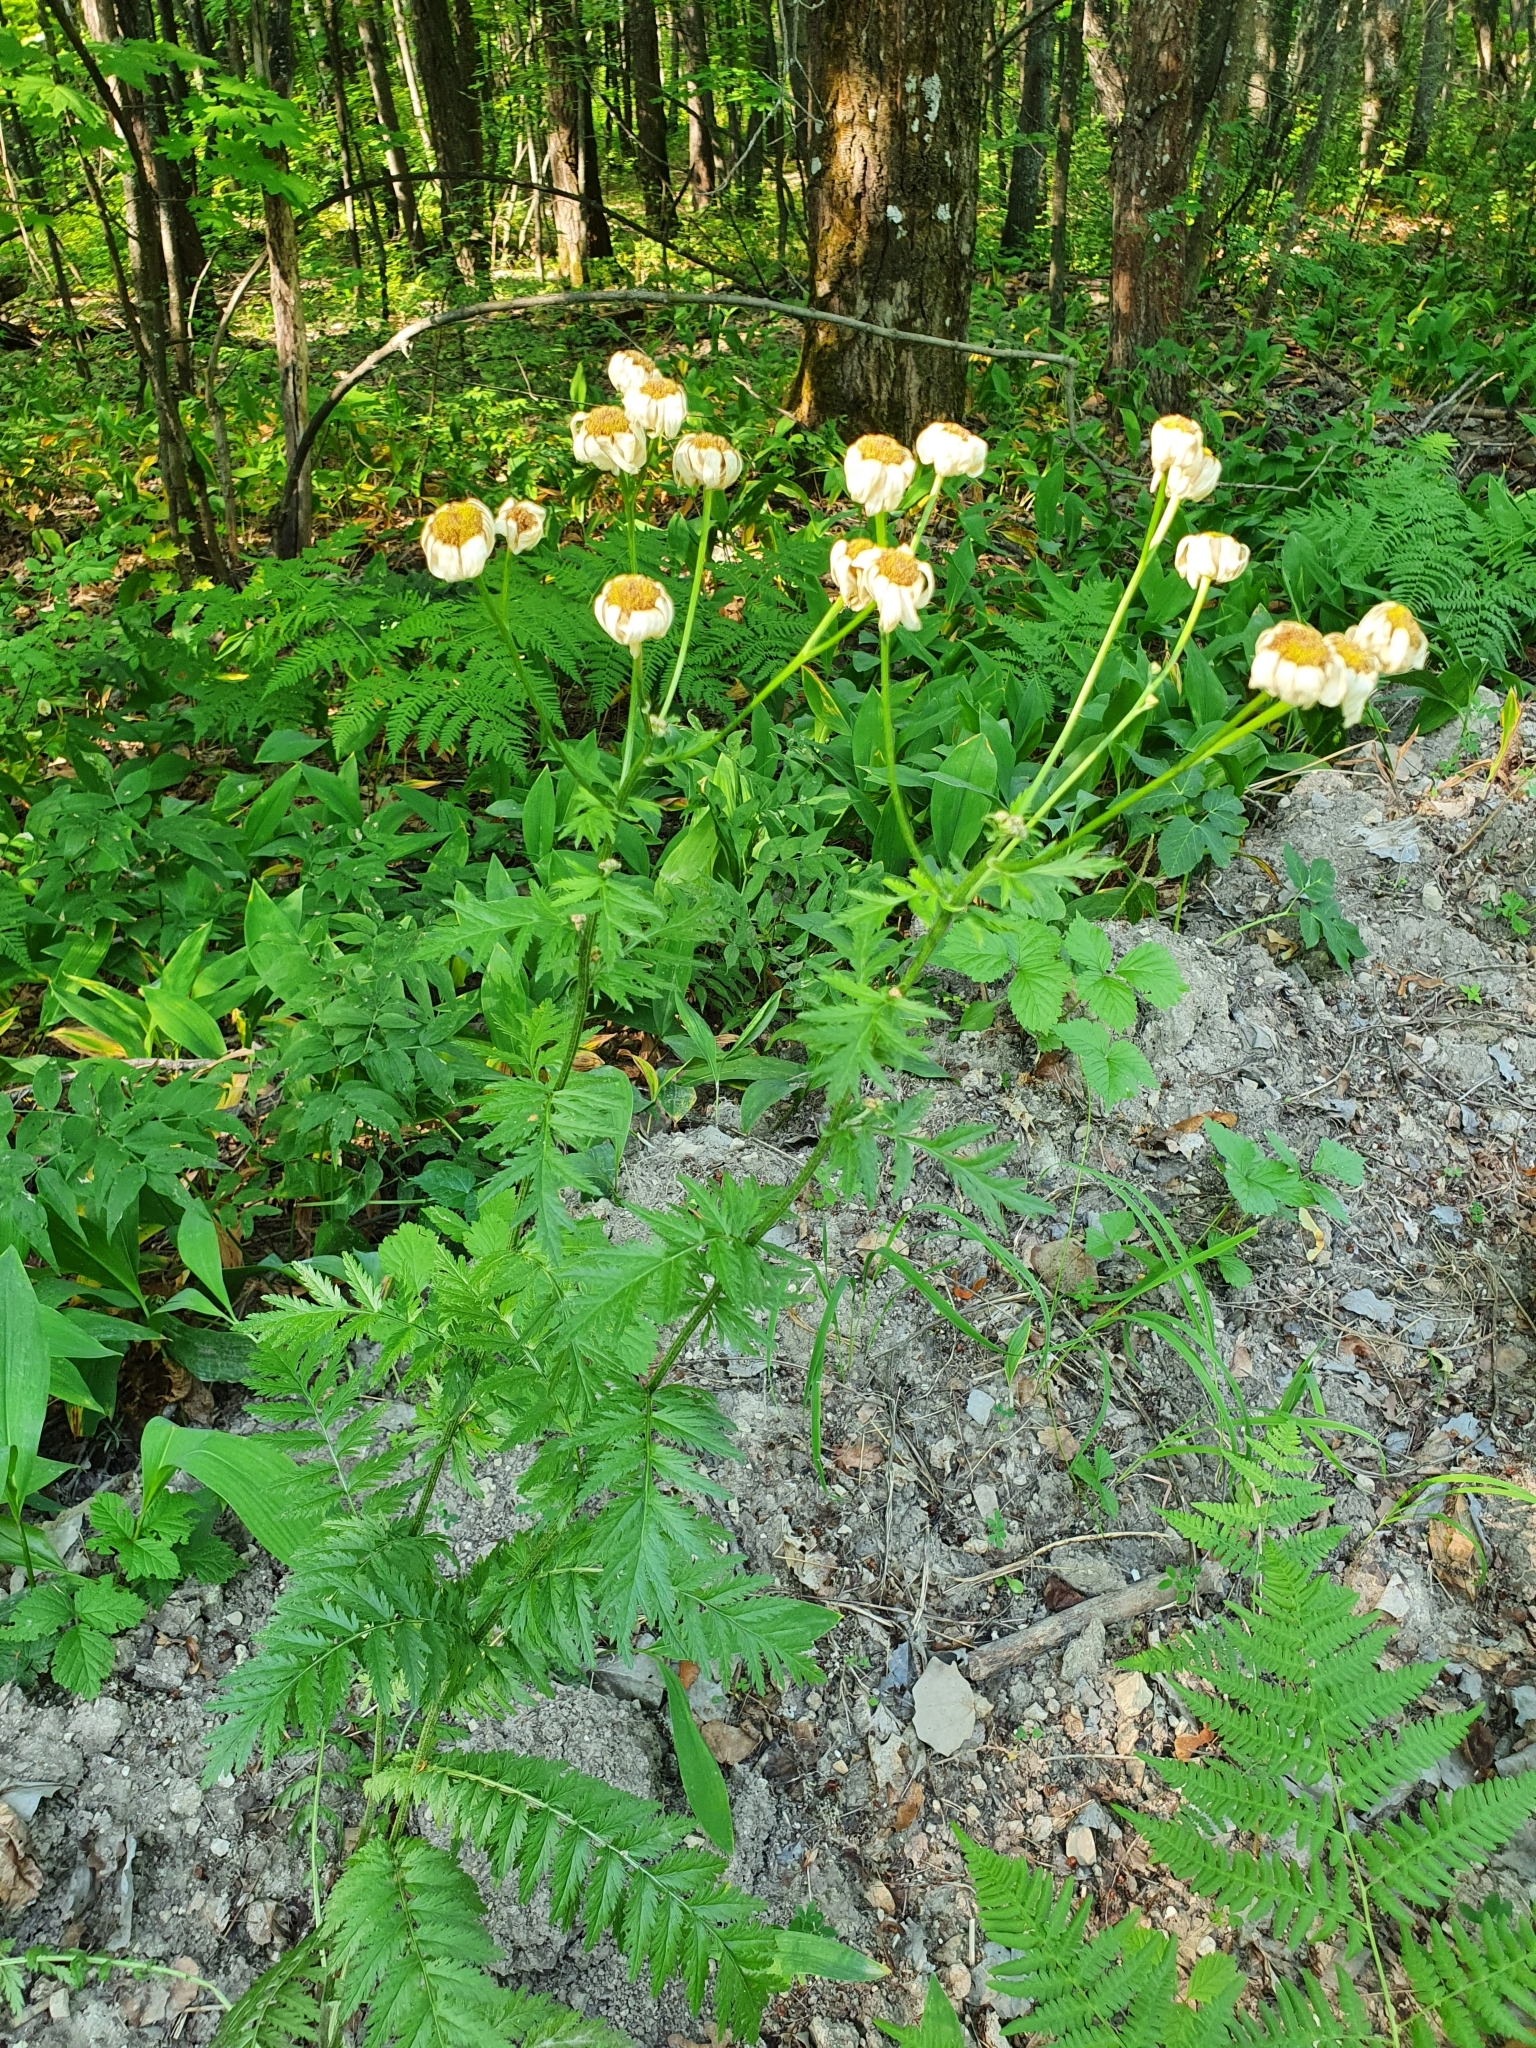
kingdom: Plantae
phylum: Tracheophyta
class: Magnoliopsida
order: Asterales
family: Asteraceae
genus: Tanacetum
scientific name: Tanacetum corymbosum
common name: Scentless feverfew
